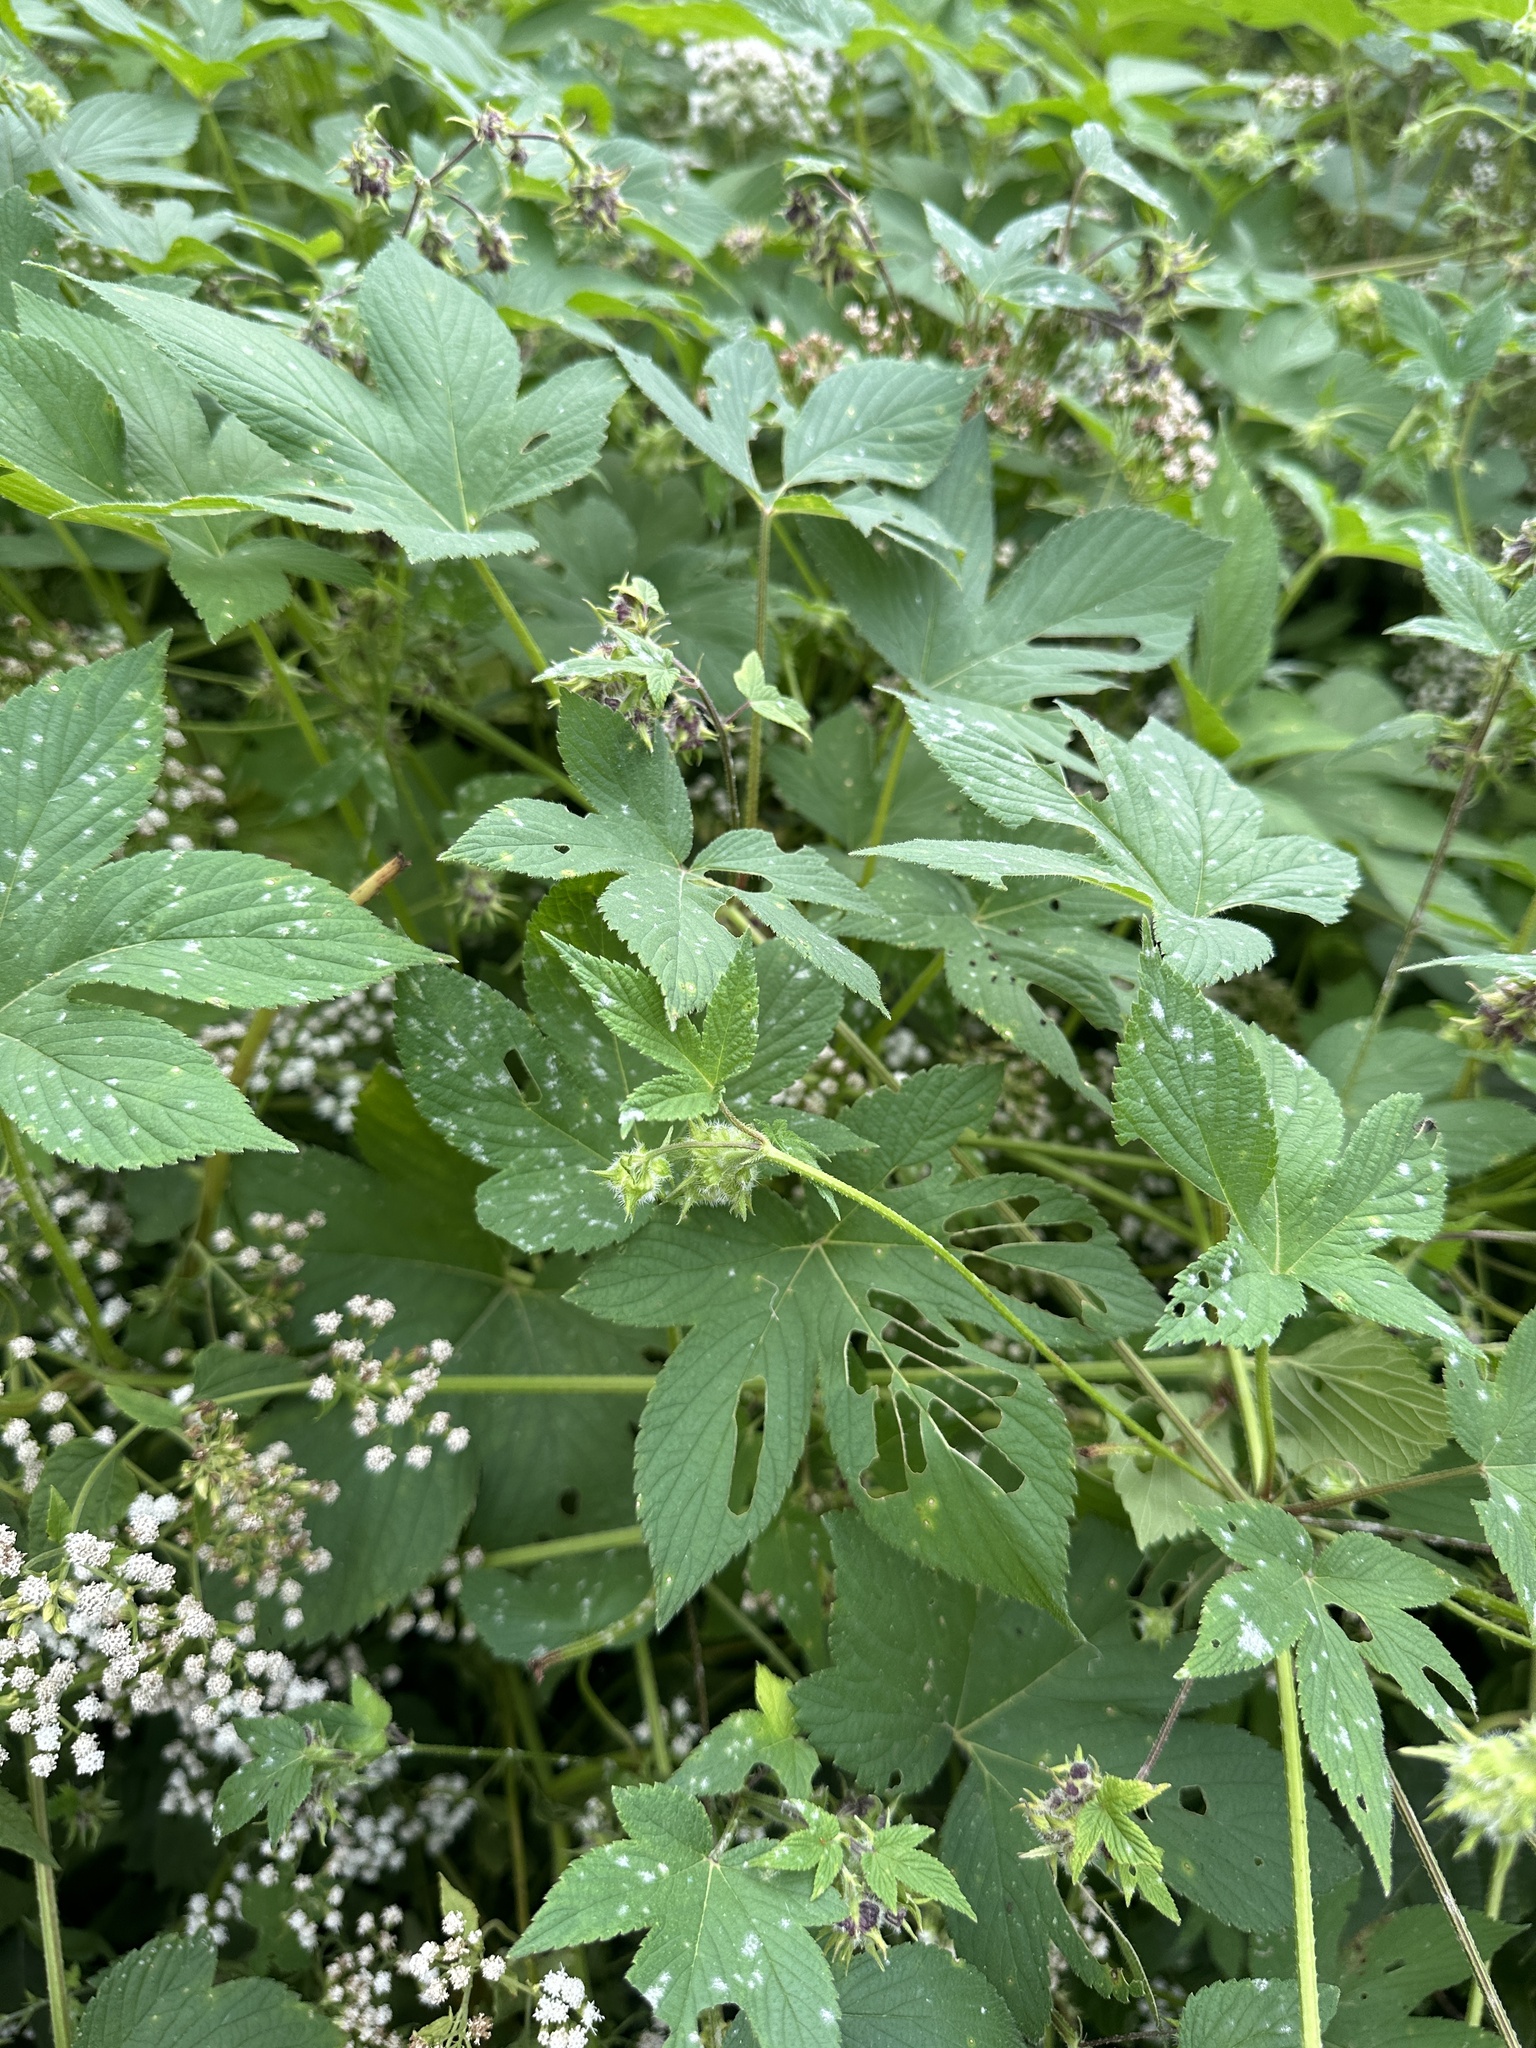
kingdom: Plantae
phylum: Tracheophyta
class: Magnoliopsida
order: Rosales
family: Cannabaceae
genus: Humulus
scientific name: Humulus scandens
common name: Japanese hop
